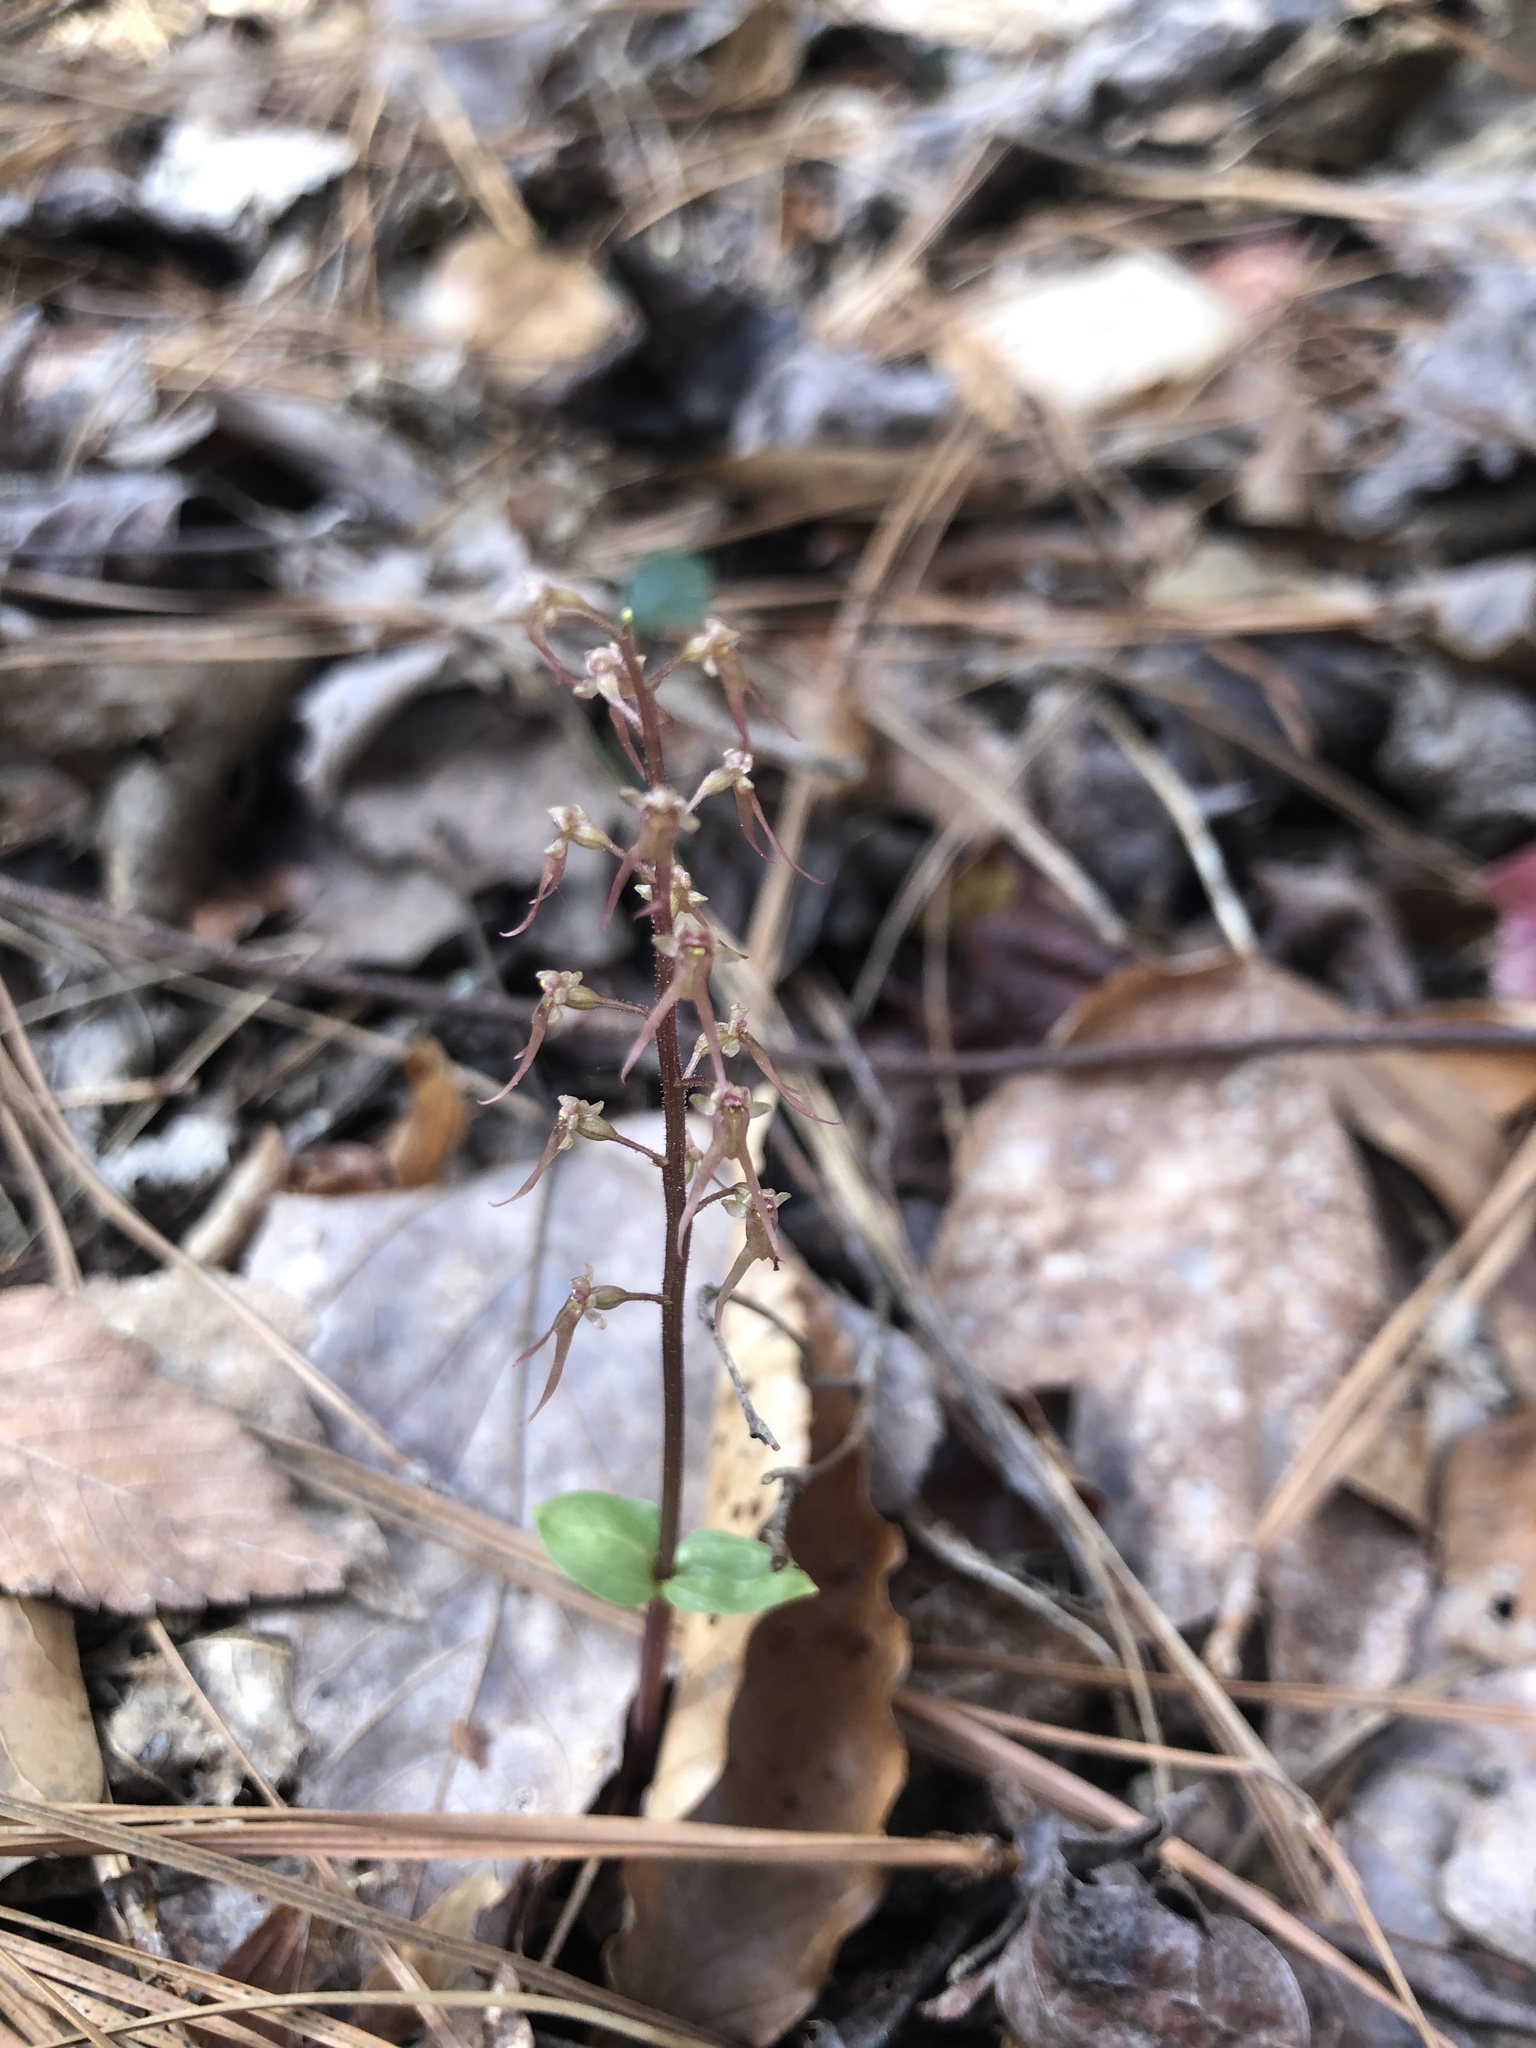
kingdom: Plantae
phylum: Tracheophyta
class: Liliopsida
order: Asparagales
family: Orchidaceae
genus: Neottia
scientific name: Neottia bifolia
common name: Southern twayblade
